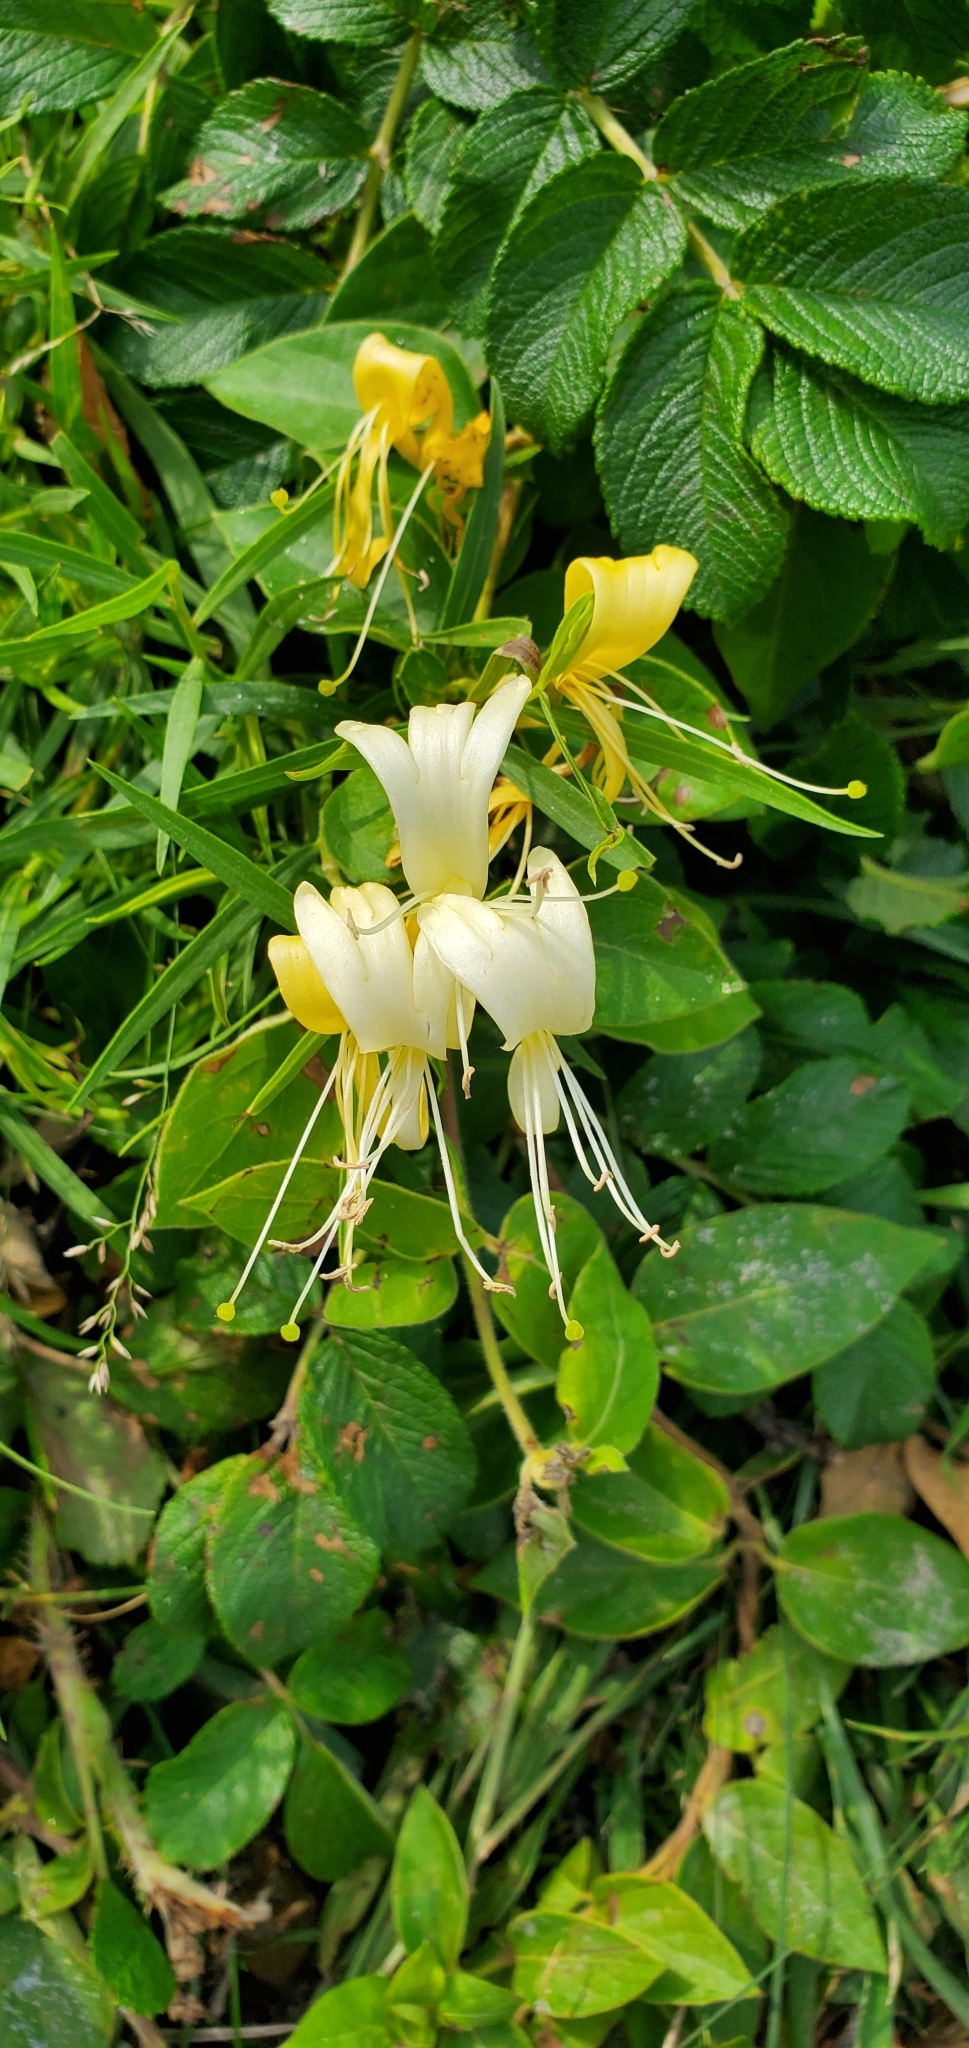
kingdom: Plantae
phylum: Tracheophyta
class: Magnoliopsida
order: Dipsacales
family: Caprifoliaceae
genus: Lonicera
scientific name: Lonicera japonica
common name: Japanese honeysuckle
